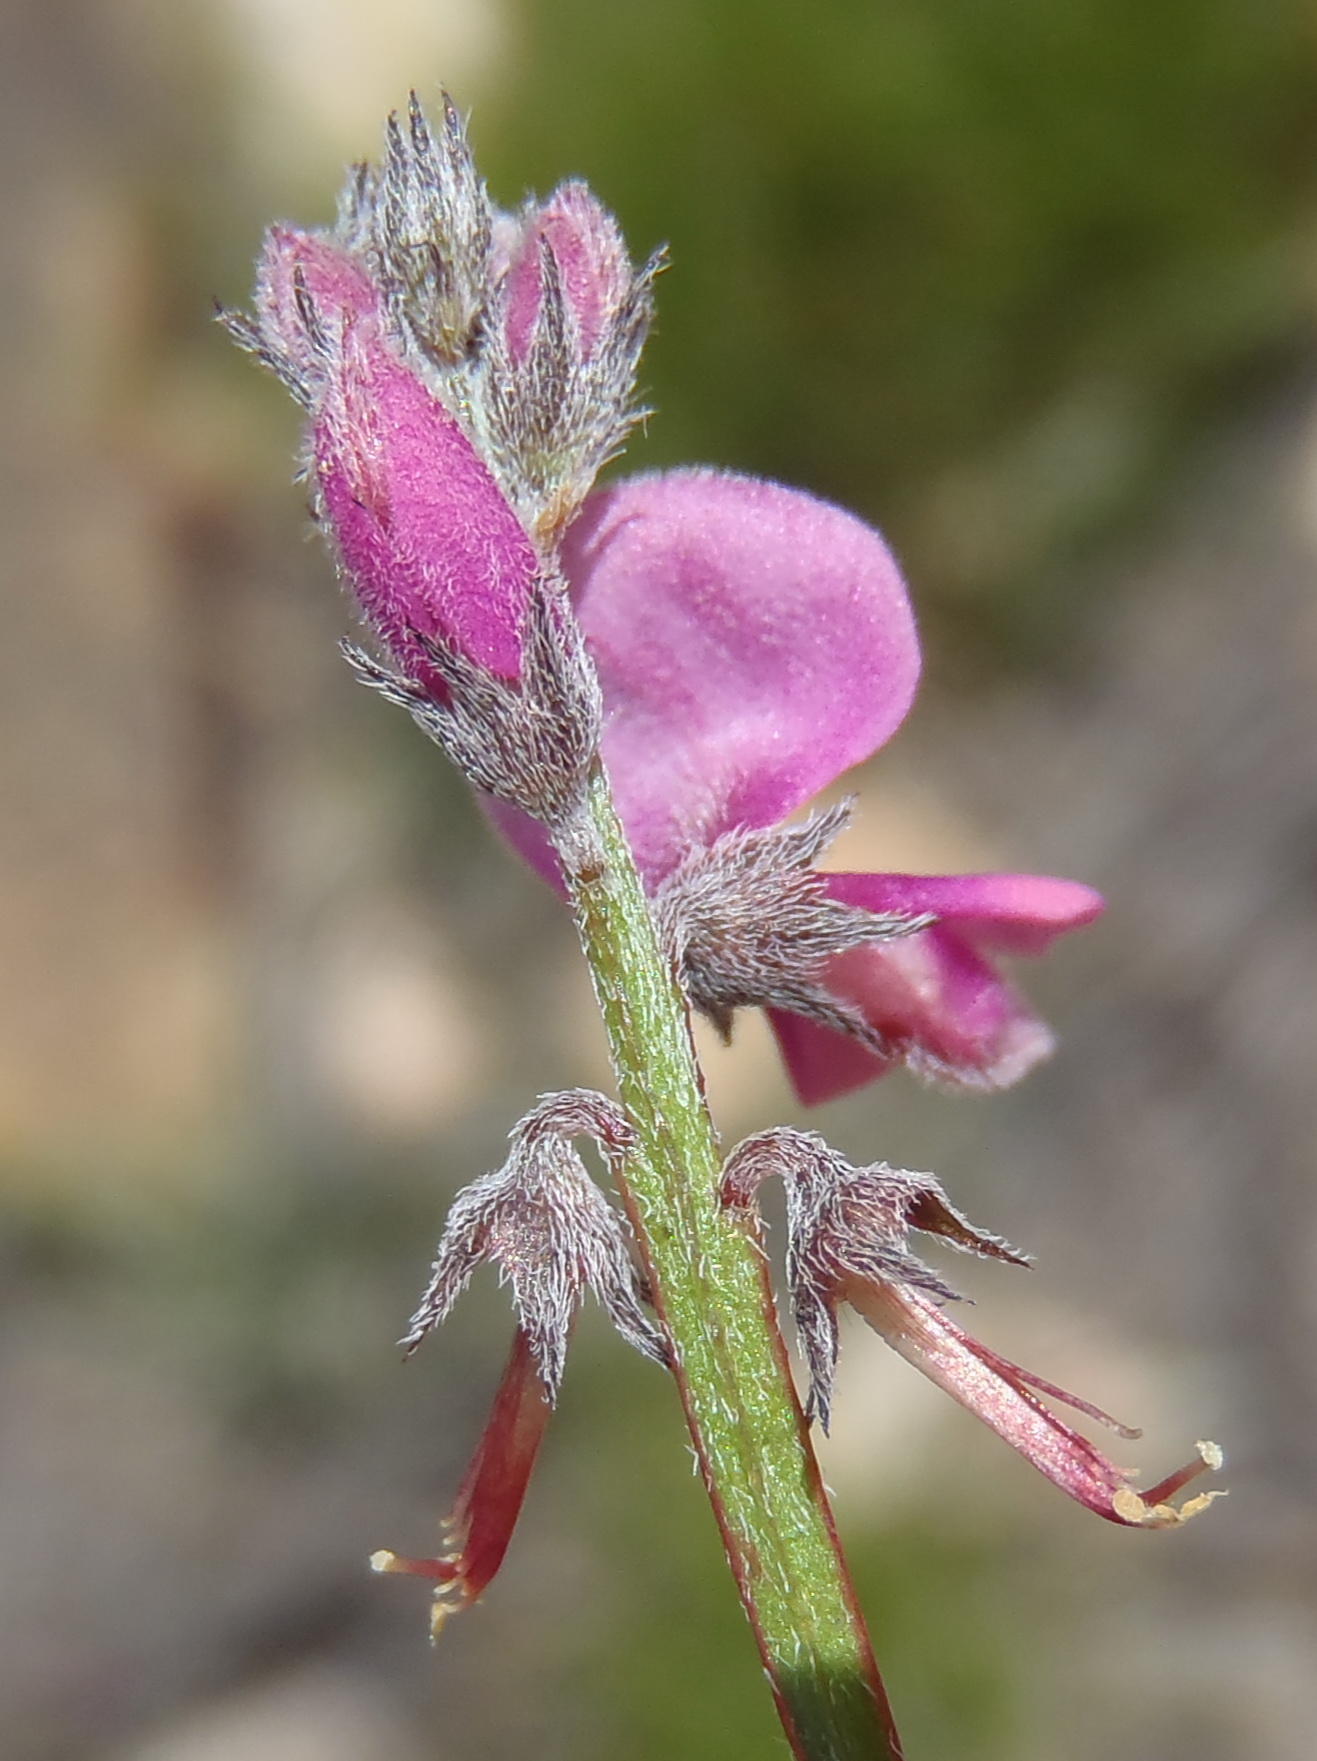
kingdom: Plantae
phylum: Tracheophyta
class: Magnoliopsida
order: Fabales
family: Fabaceae
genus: Indigofera
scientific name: Indigofera declinata
